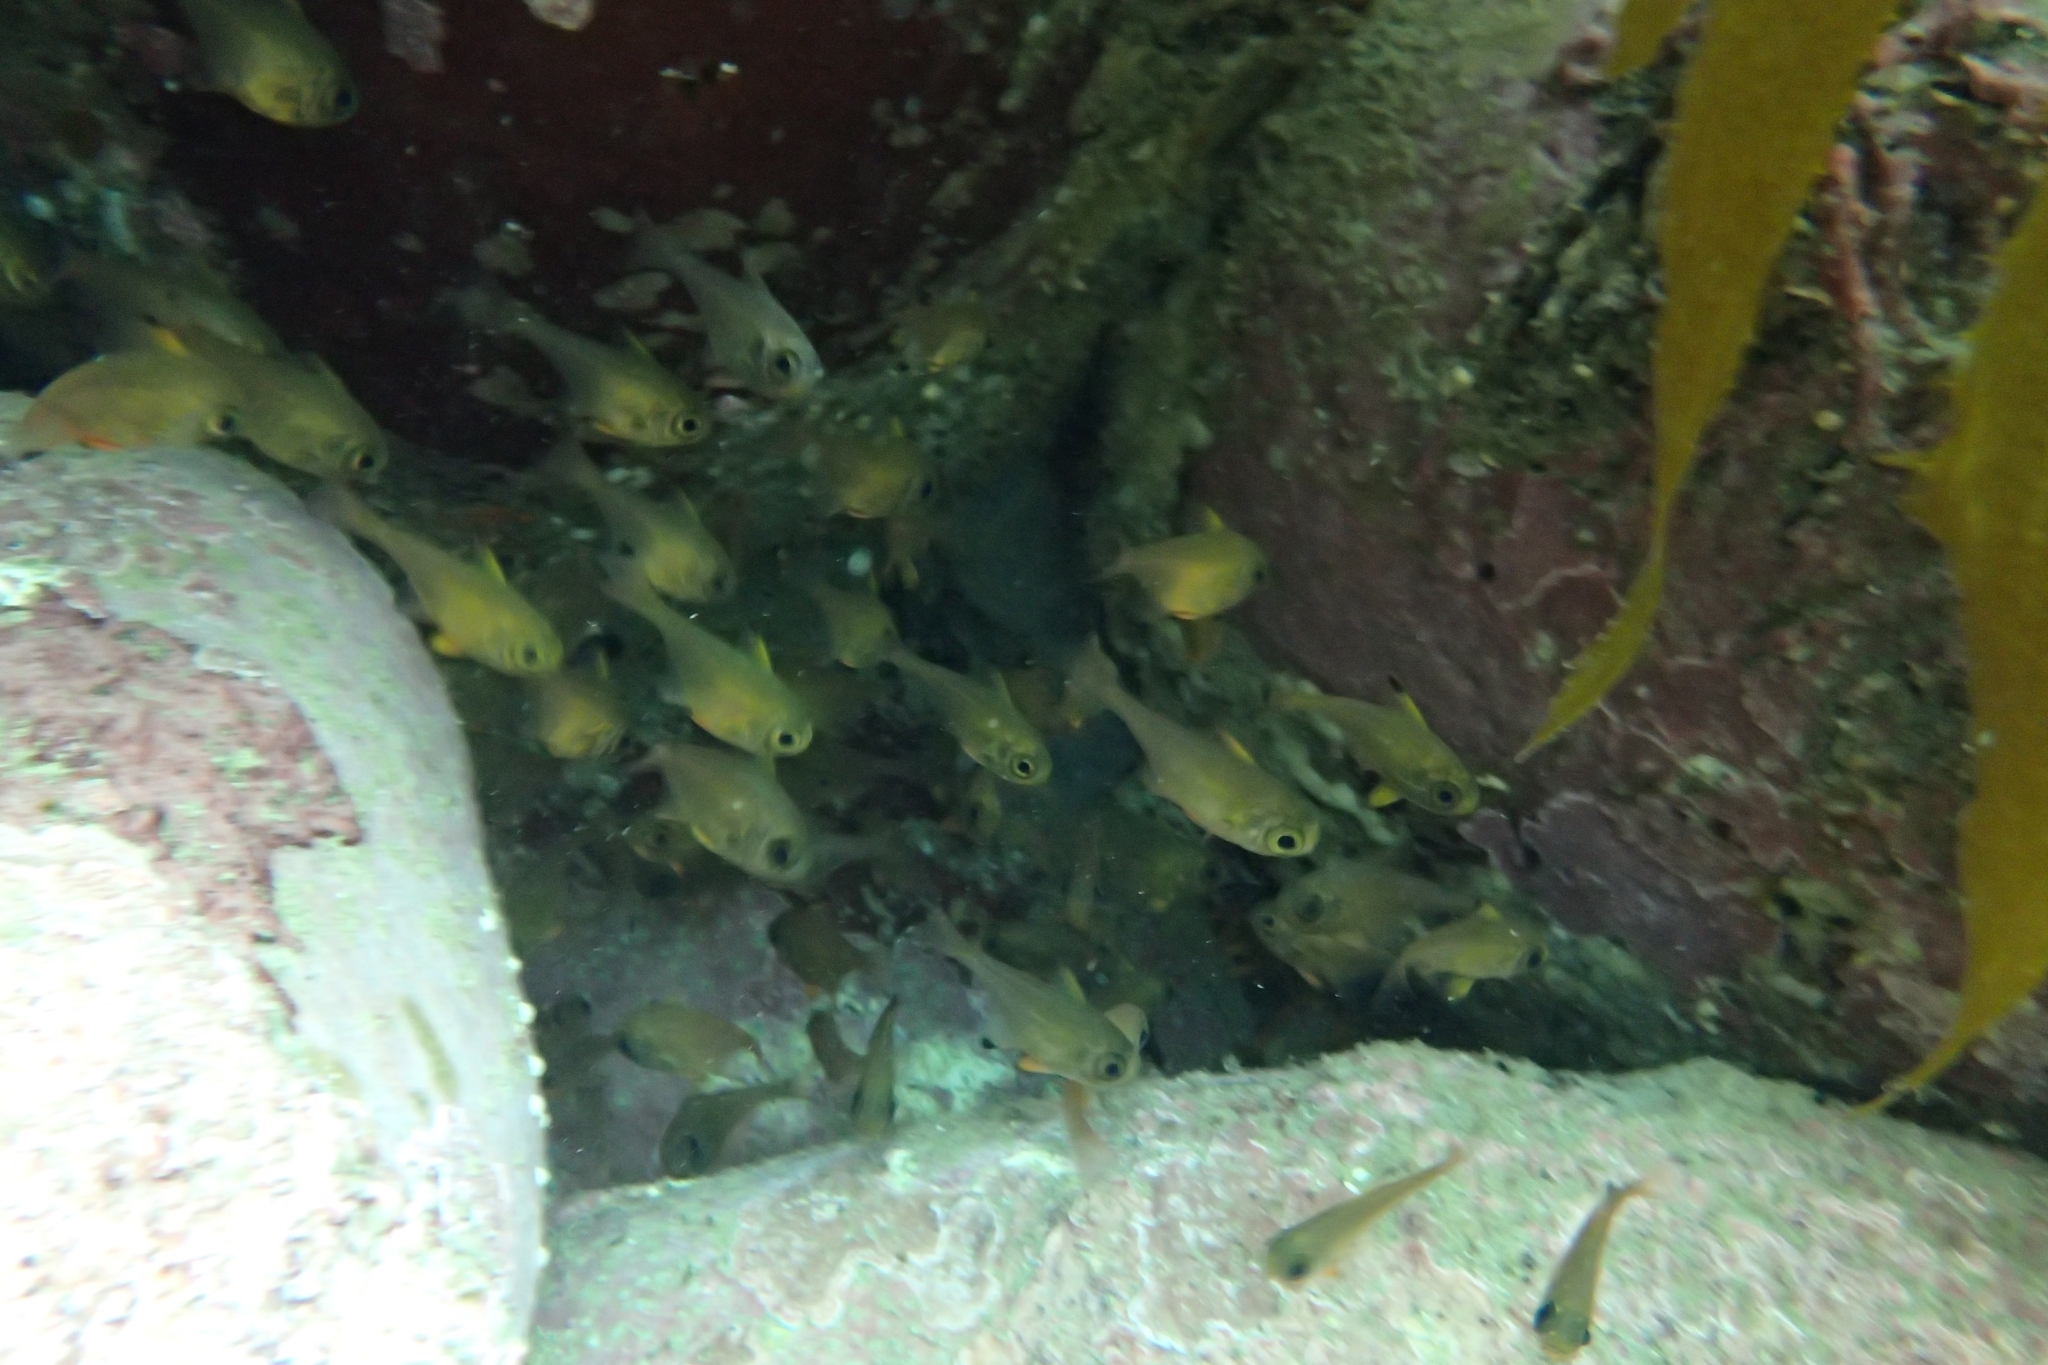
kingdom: Animalia
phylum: Chordata
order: Perciformes
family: Pempheridae
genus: Pempheris
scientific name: Pempheris adspersa
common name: Bigeye
